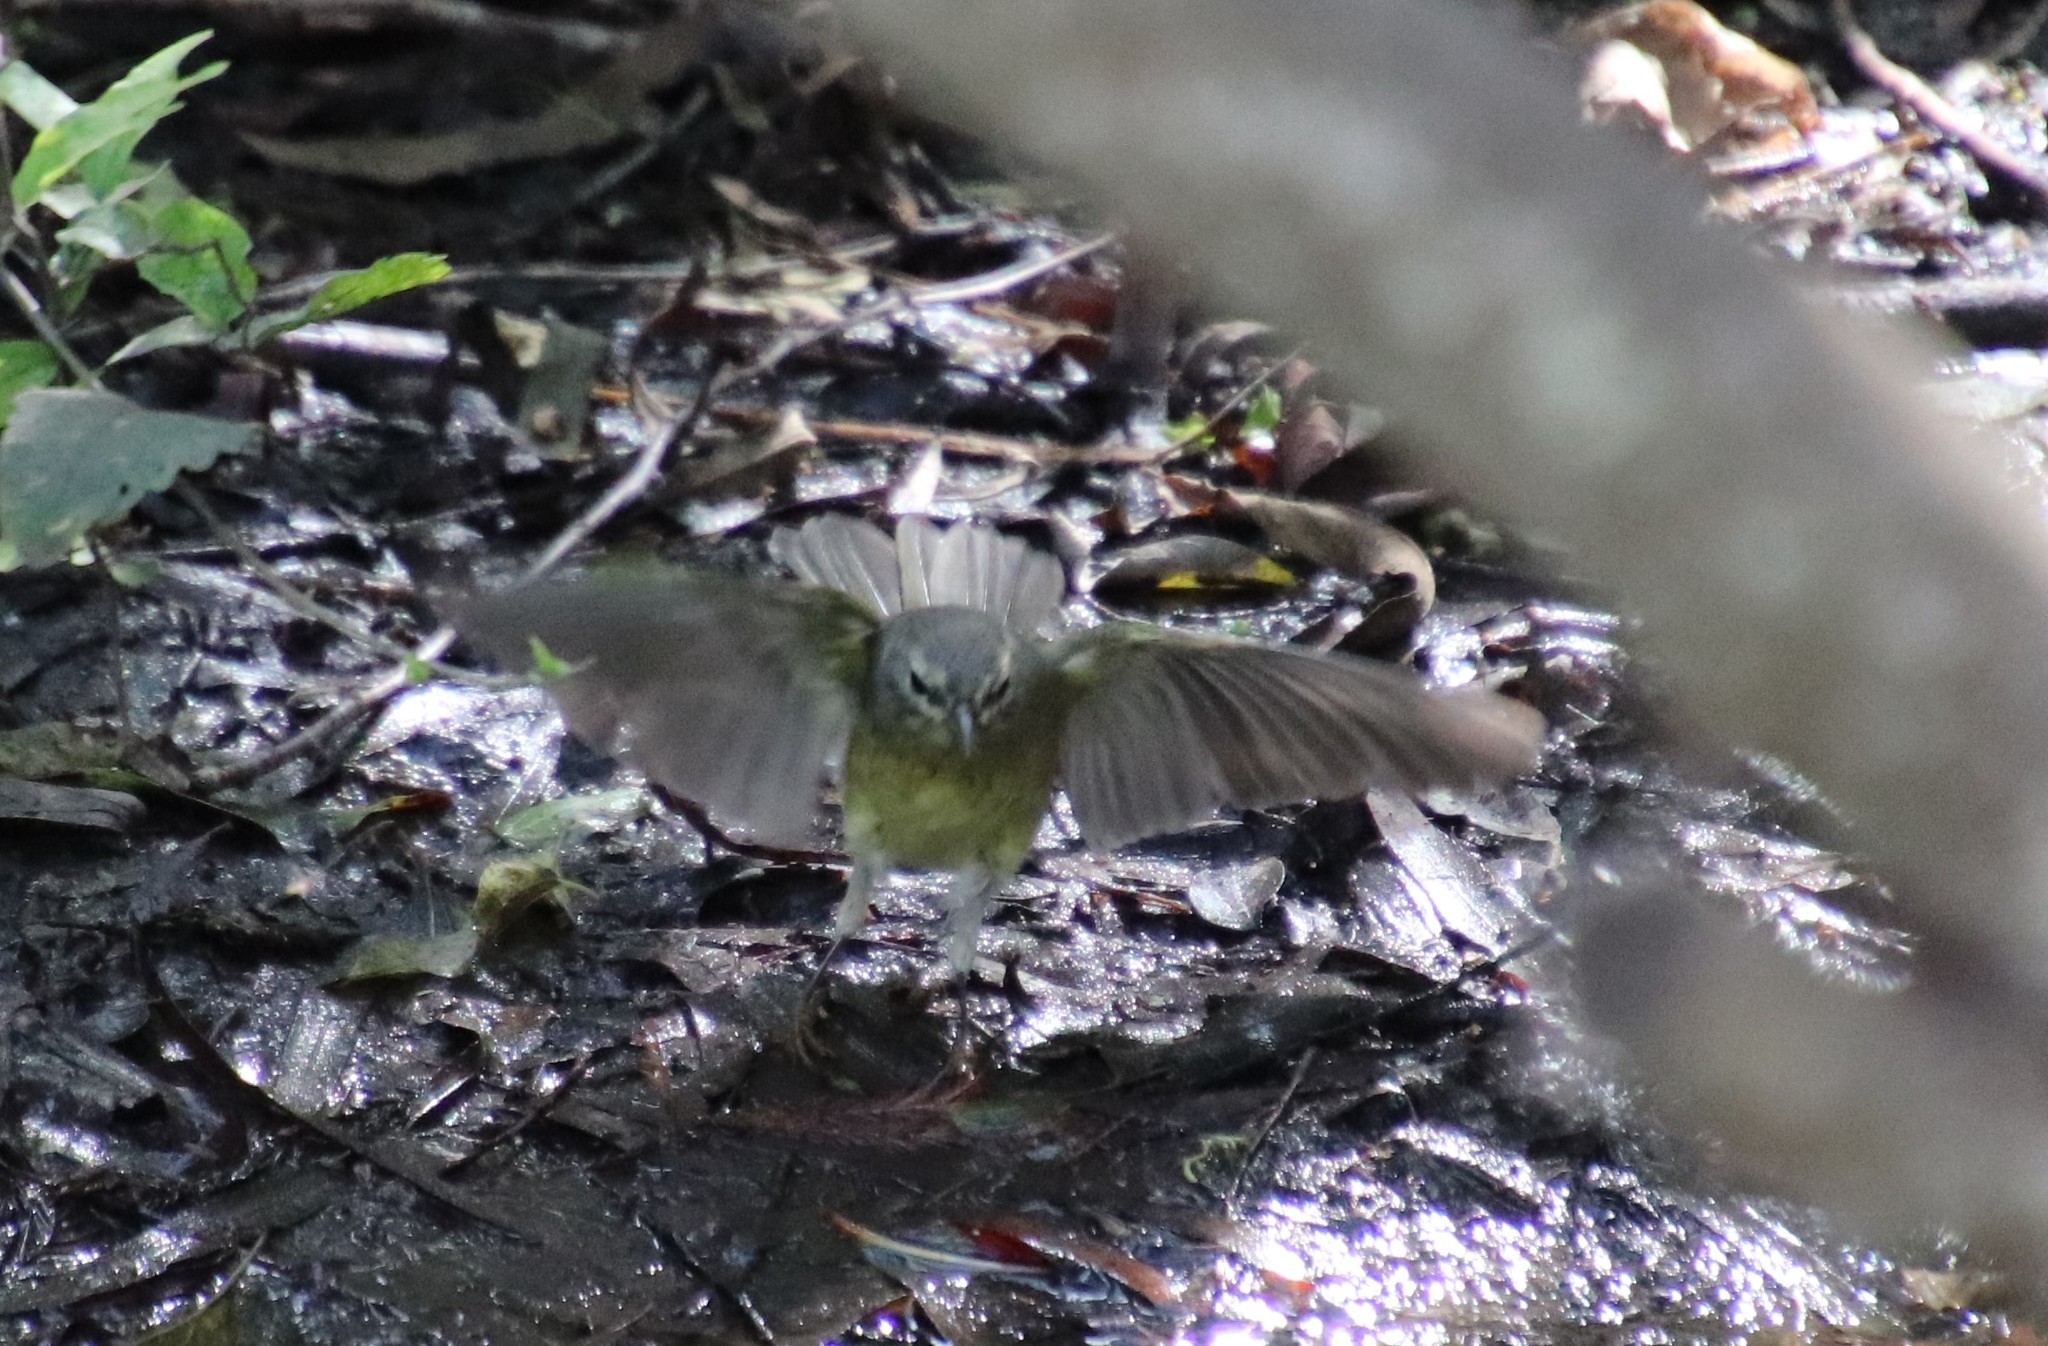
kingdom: Animalia
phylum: Chordata
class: Aves
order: Passeriformes
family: Parulidae
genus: Leiothlypis
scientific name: Leiothlypis celata
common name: Orange-crowned warbler
